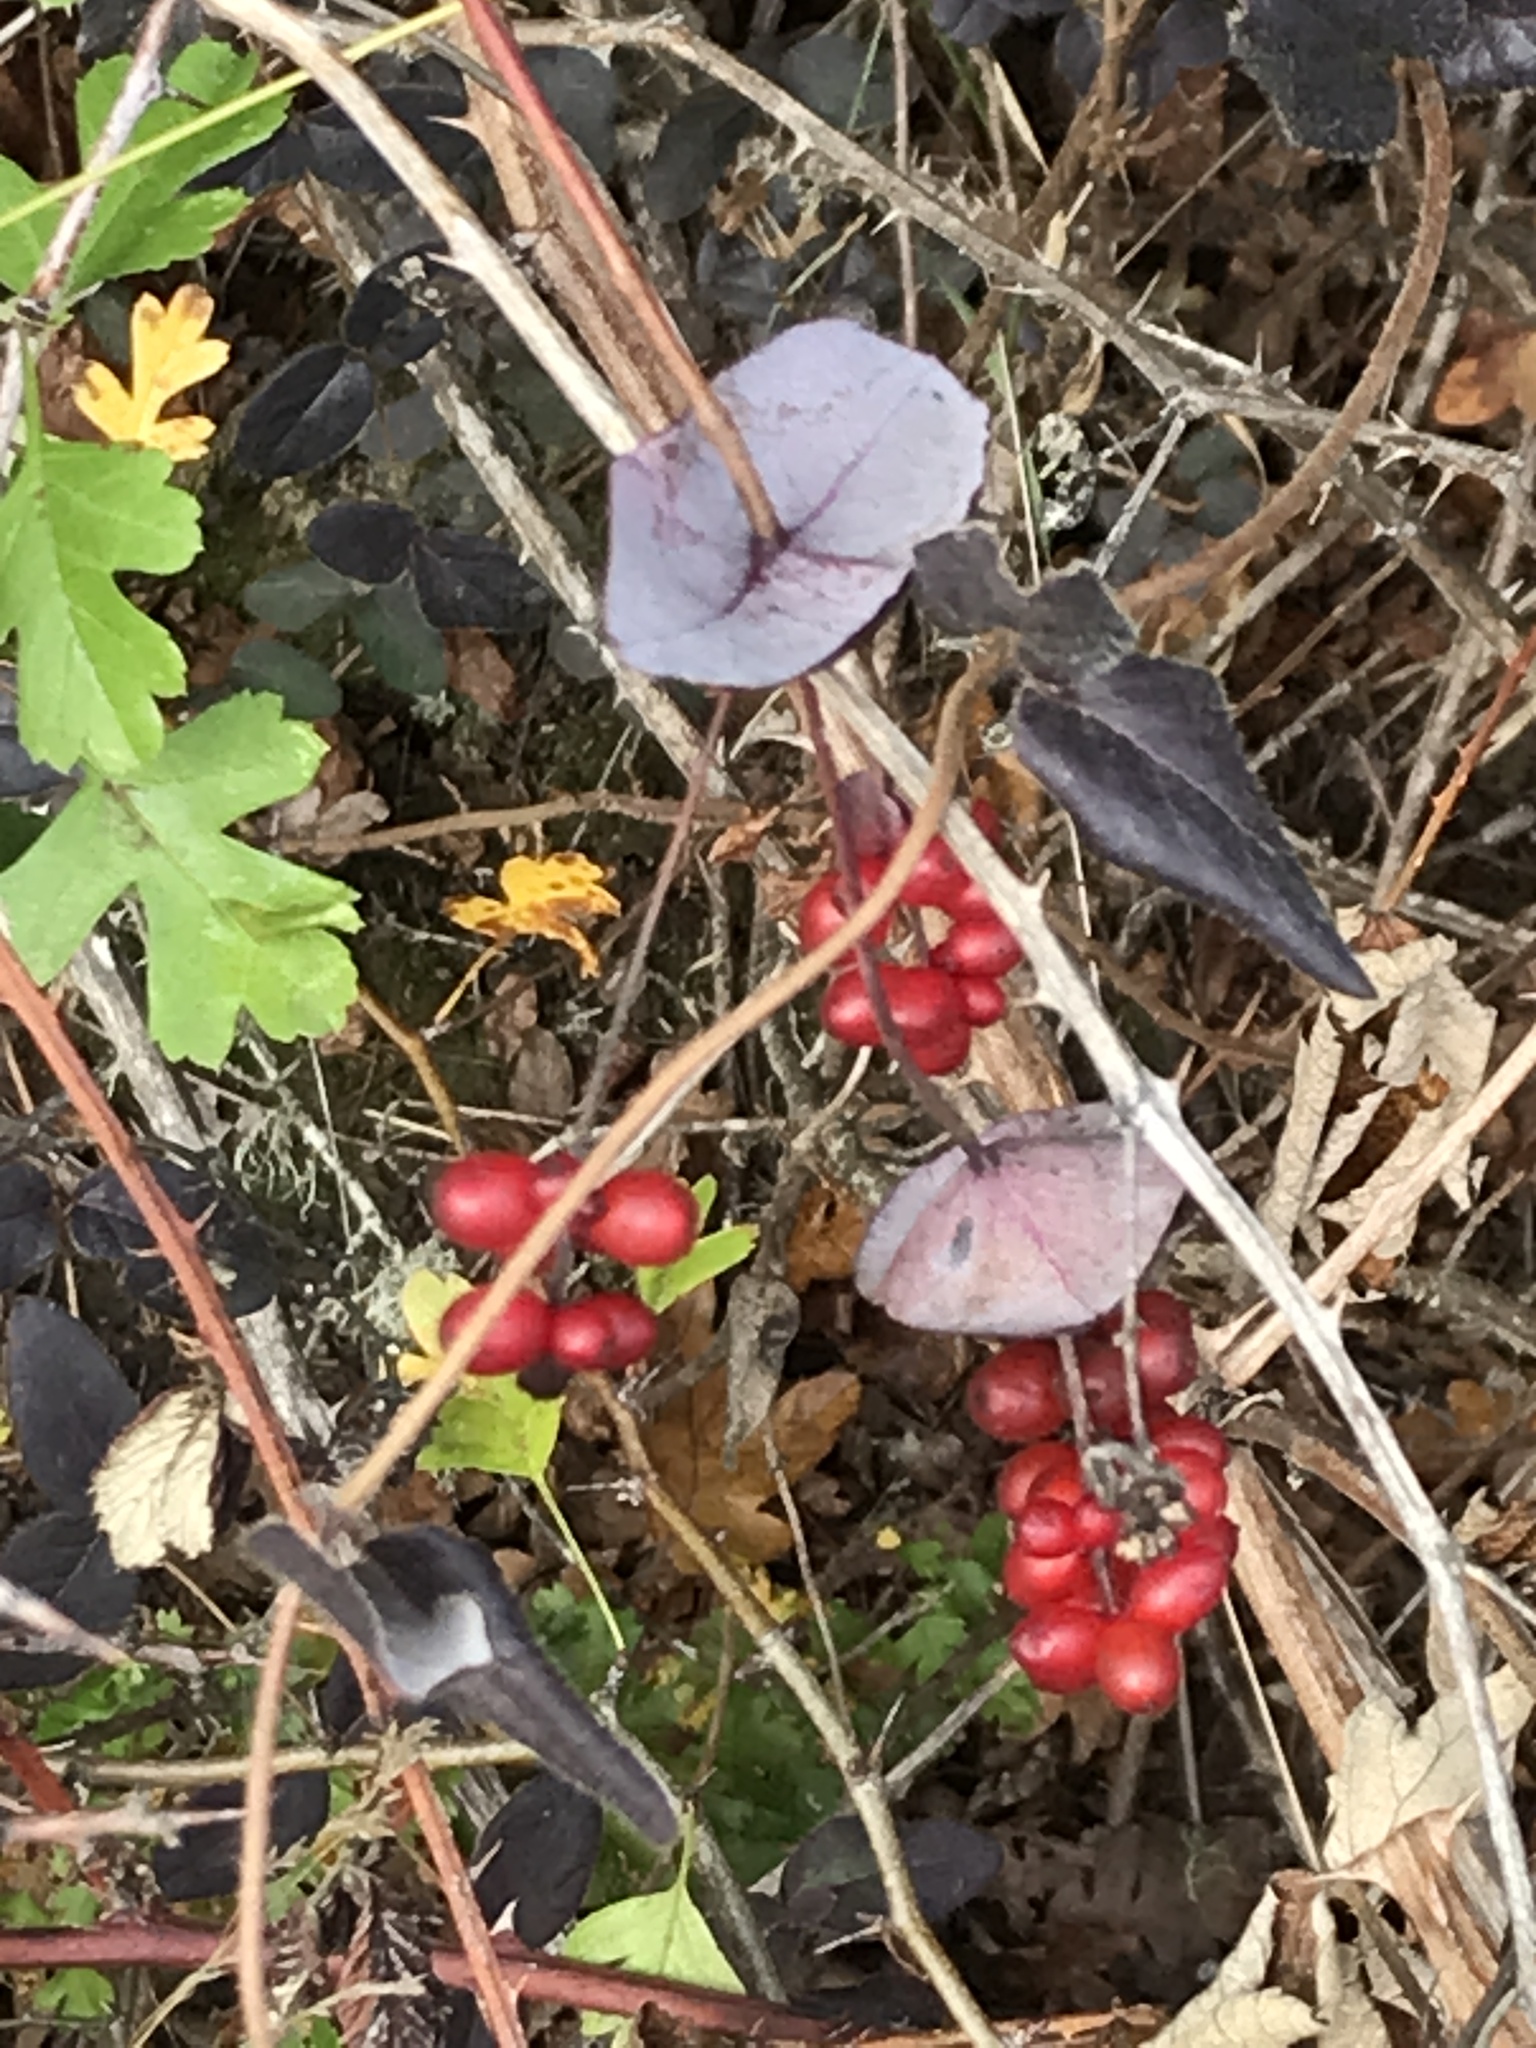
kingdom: Plantae
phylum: Tracheophyta
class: Magnoliopsida
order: Dipsacales
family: Caprifoliaceae
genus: Lonicera
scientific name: Lonicera hispidula
